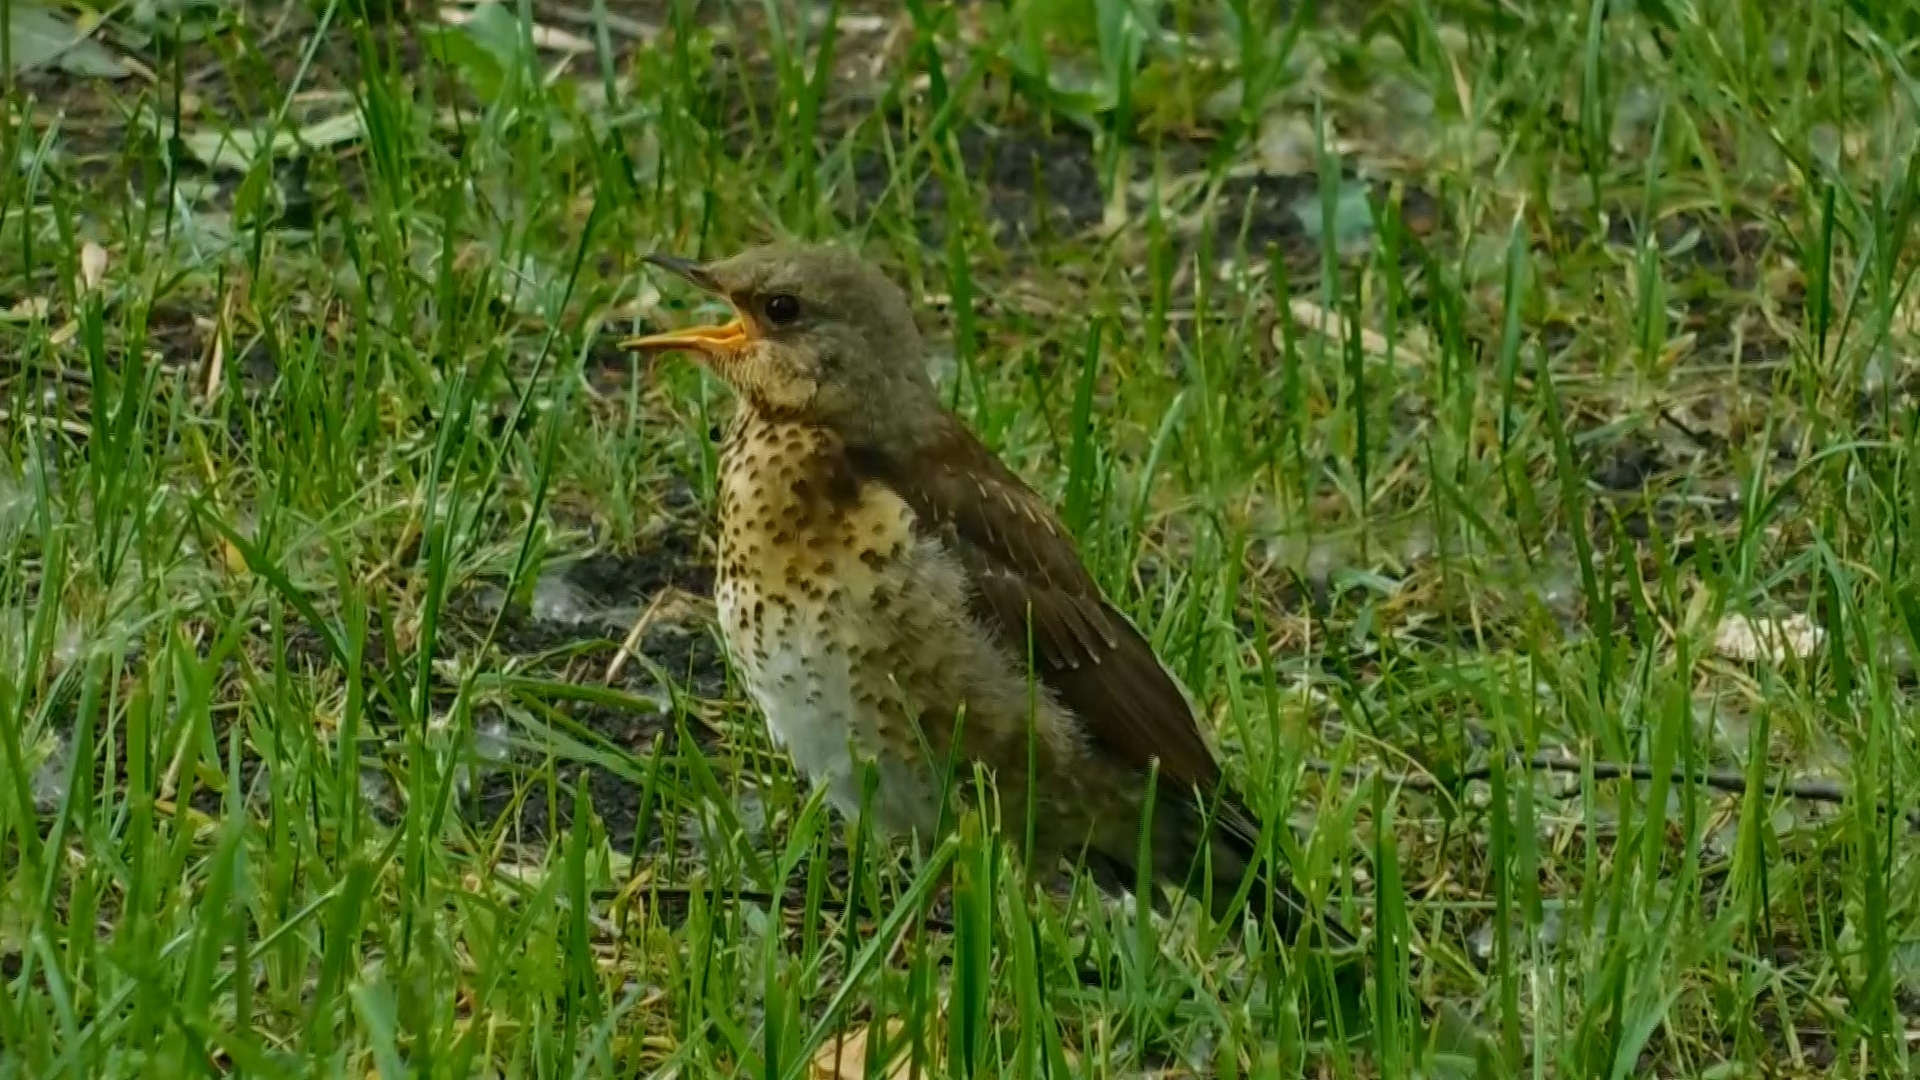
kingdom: Animalia
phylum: Chordata
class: Aves
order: Passeriformes
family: Turdidae
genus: Turdus
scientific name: Turdus pilaris
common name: Fieldfare
